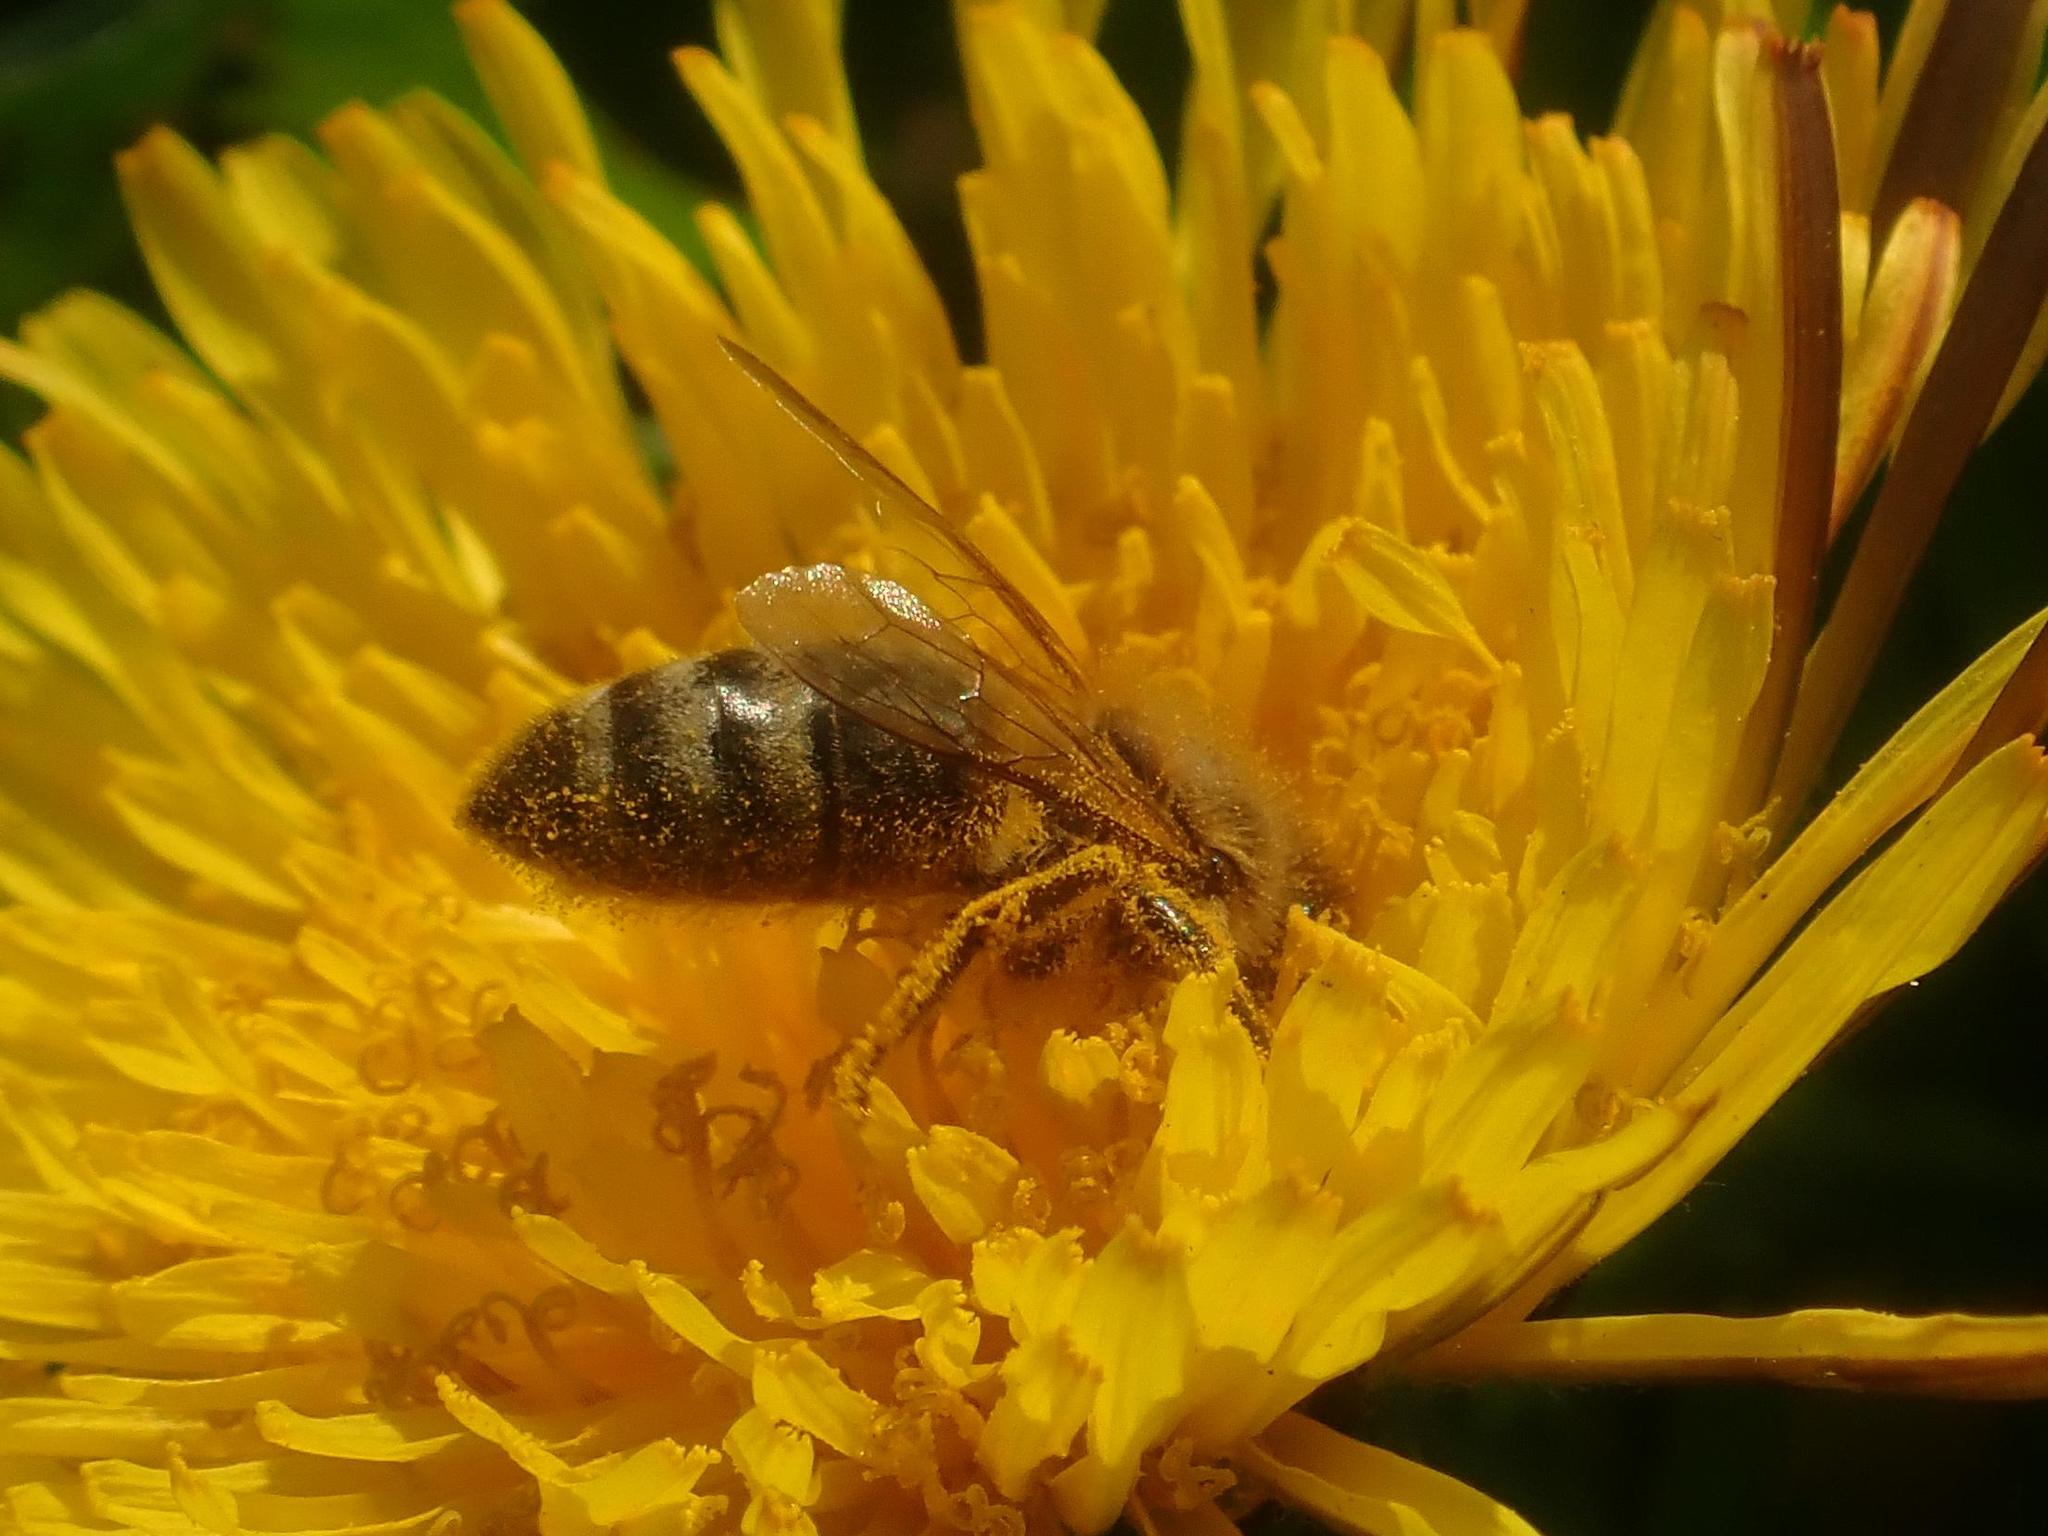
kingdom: Animalia
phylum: Arthropoda
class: Insecta
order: Hymenoptera
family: Apidae
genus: Apis
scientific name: Apis mellifera
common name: Honey bee
